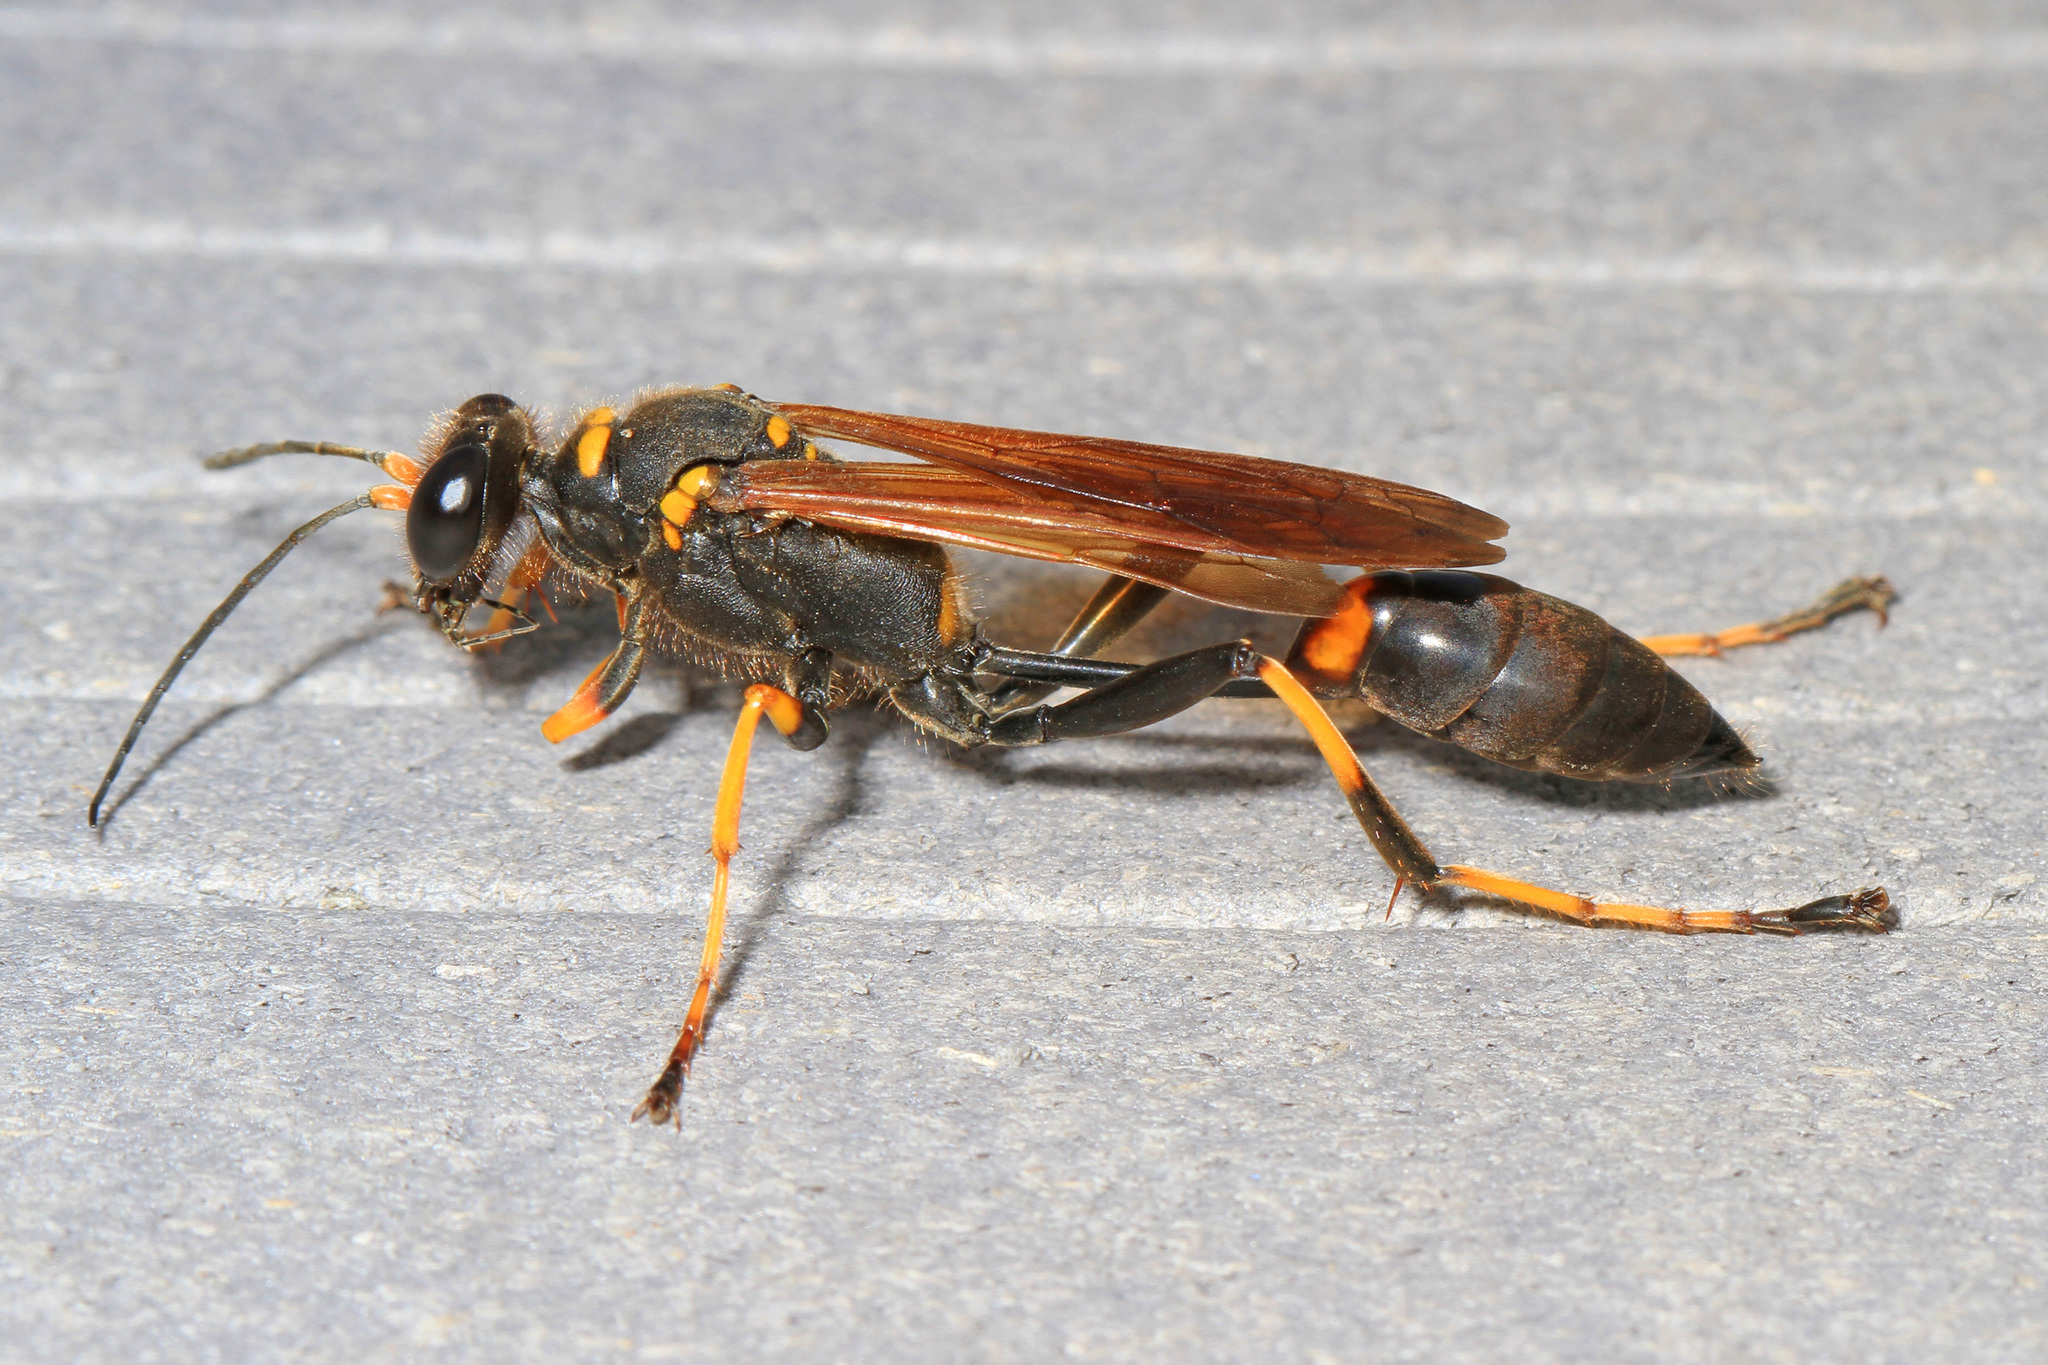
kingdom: Animalia
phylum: Arthropoda
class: Insecta
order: Hymenoptera
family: Sphecidae
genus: Sceliphron
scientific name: Sceliphron caementarium
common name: Mud dauber
